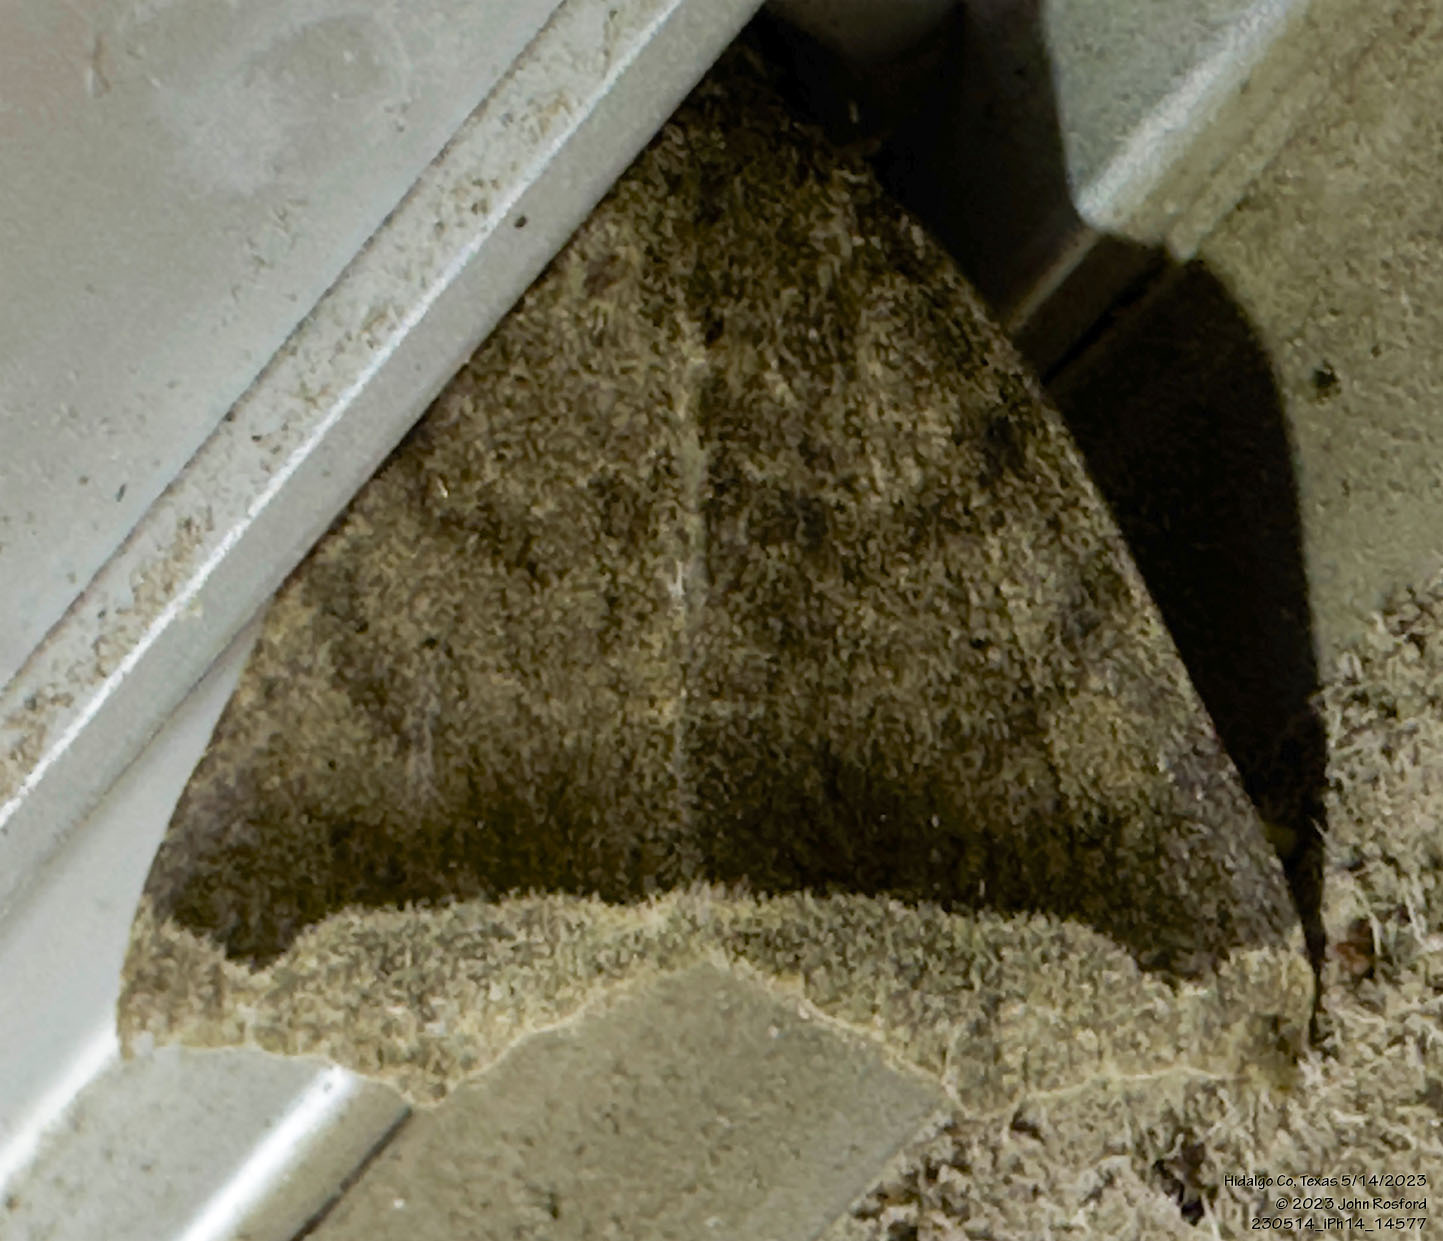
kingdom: Animalia
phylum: Arthropoda
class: Insecta
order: Lepidoptera
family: Erebidae
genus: Bendisodes
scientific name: Bendisodes aeolia
